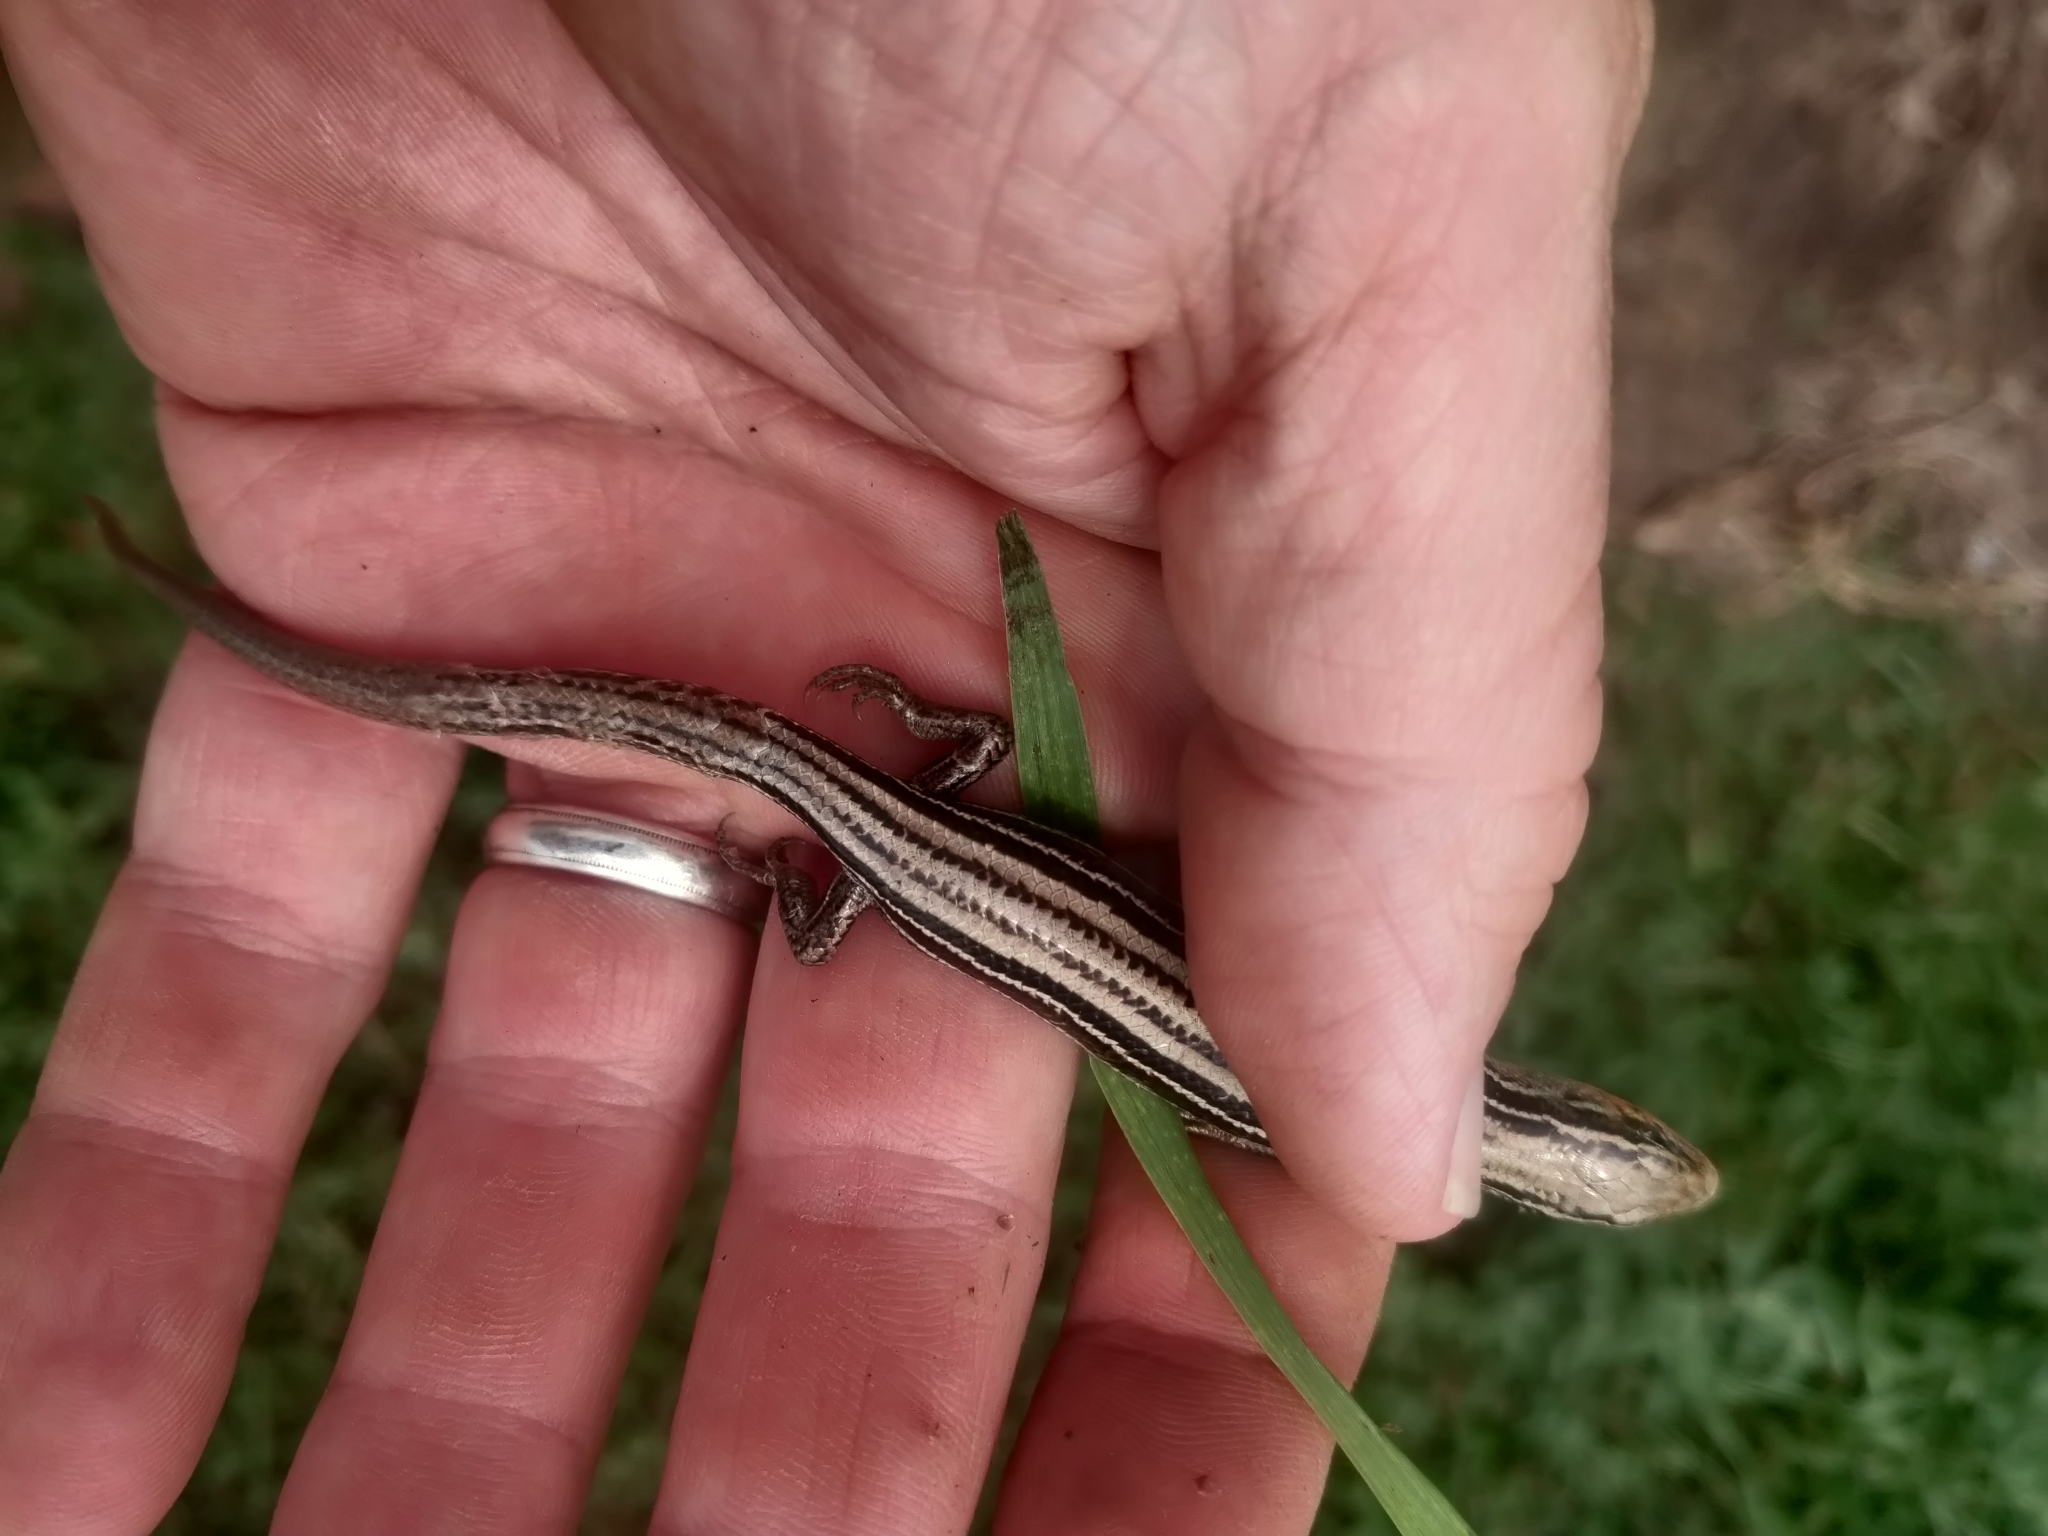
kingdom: Animalia
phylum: Chordata
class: Squamata
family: Scincidae
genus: Plestiodon
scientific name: Plestiodon septentrionalis
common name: Northern prairie skink
